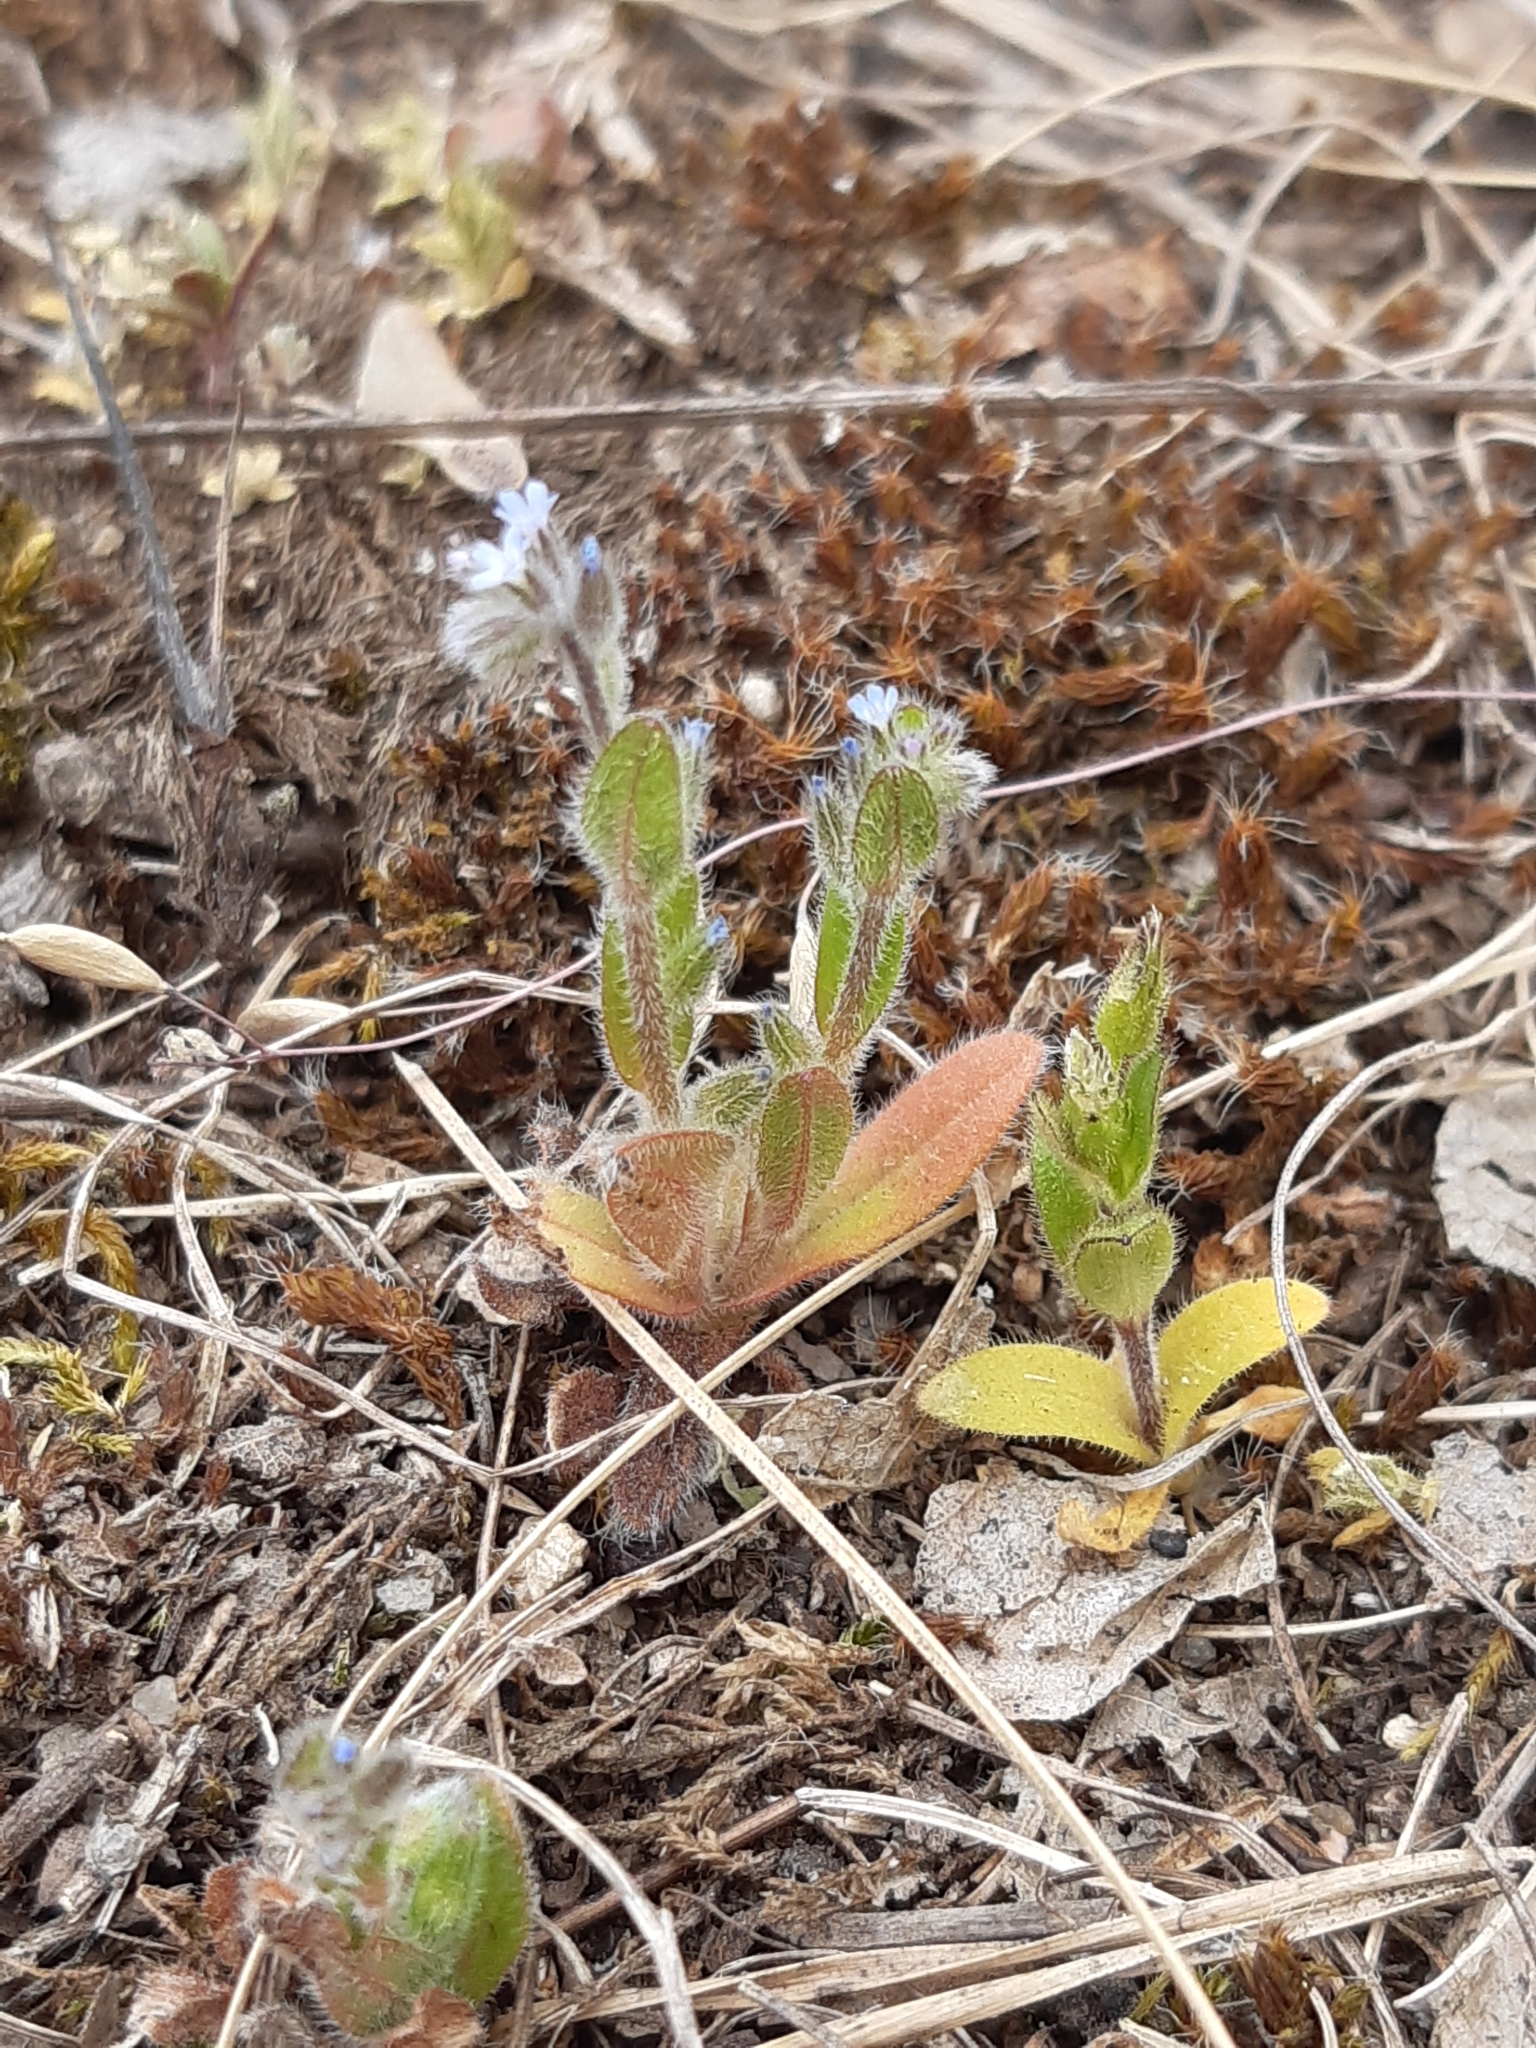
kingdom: Plantae
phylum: Tracheophyta
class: Magnoliopsida
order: Boraginales
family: Boraginaceae
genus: Myosotis
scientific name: Myosotis ramosissima
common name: Early forget-me-not
